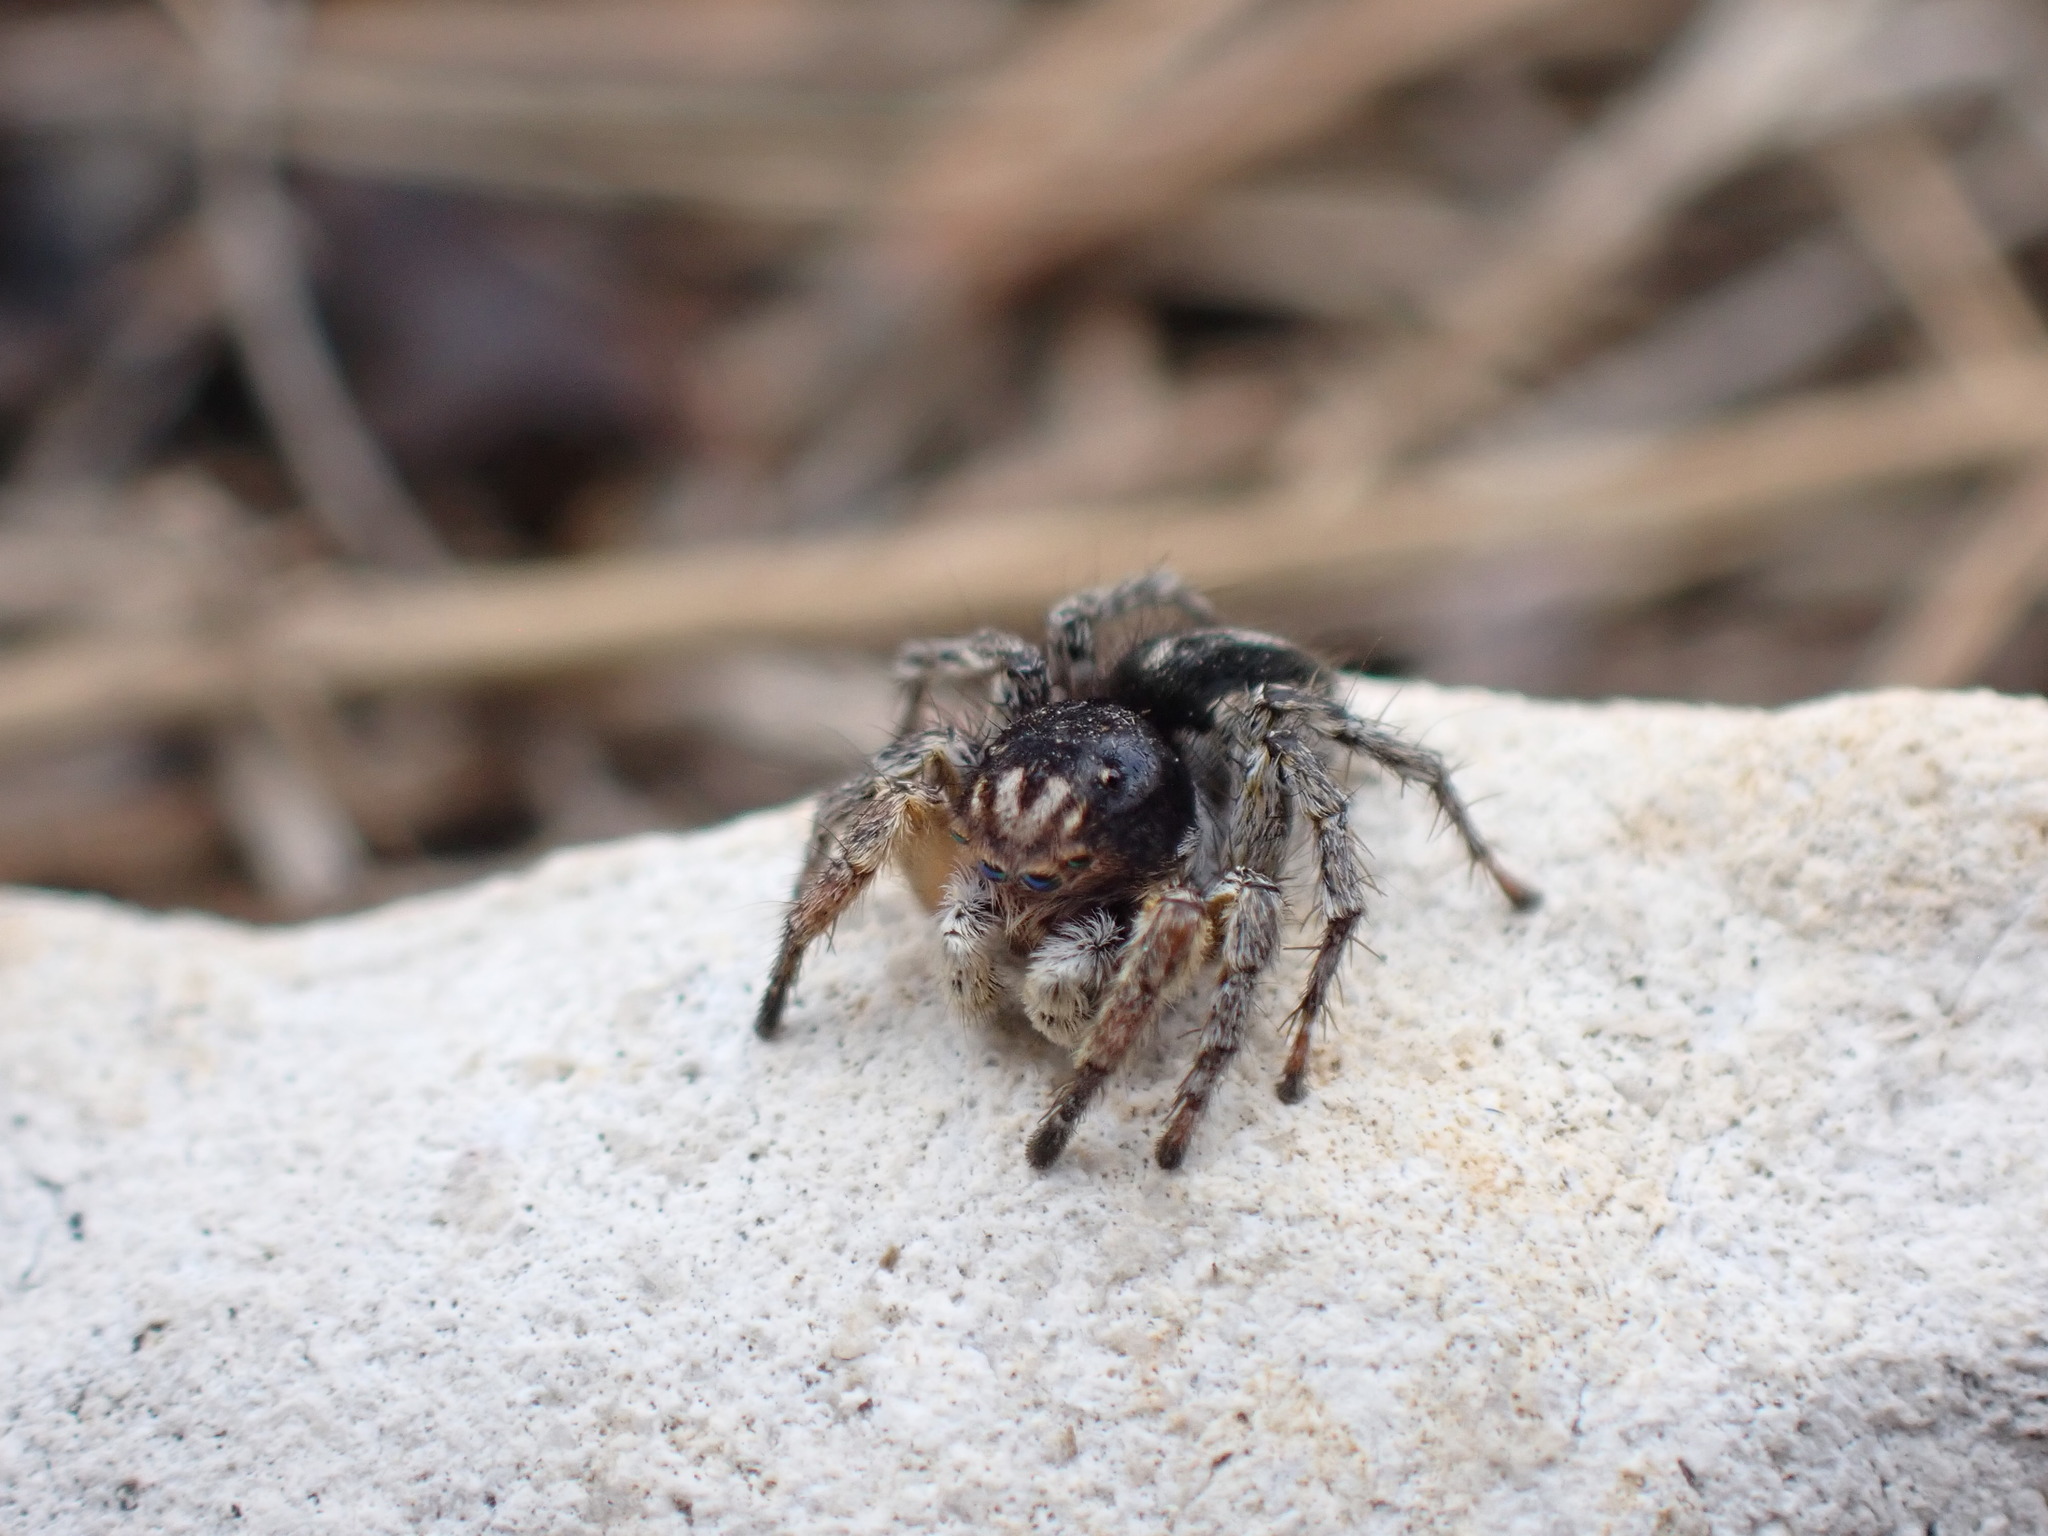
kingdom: Animalia
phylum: Arthropoda
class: Arachnida
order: Araneae
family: Salticidae
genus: Aelurillus
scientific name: Aelurillus v-insignitus
